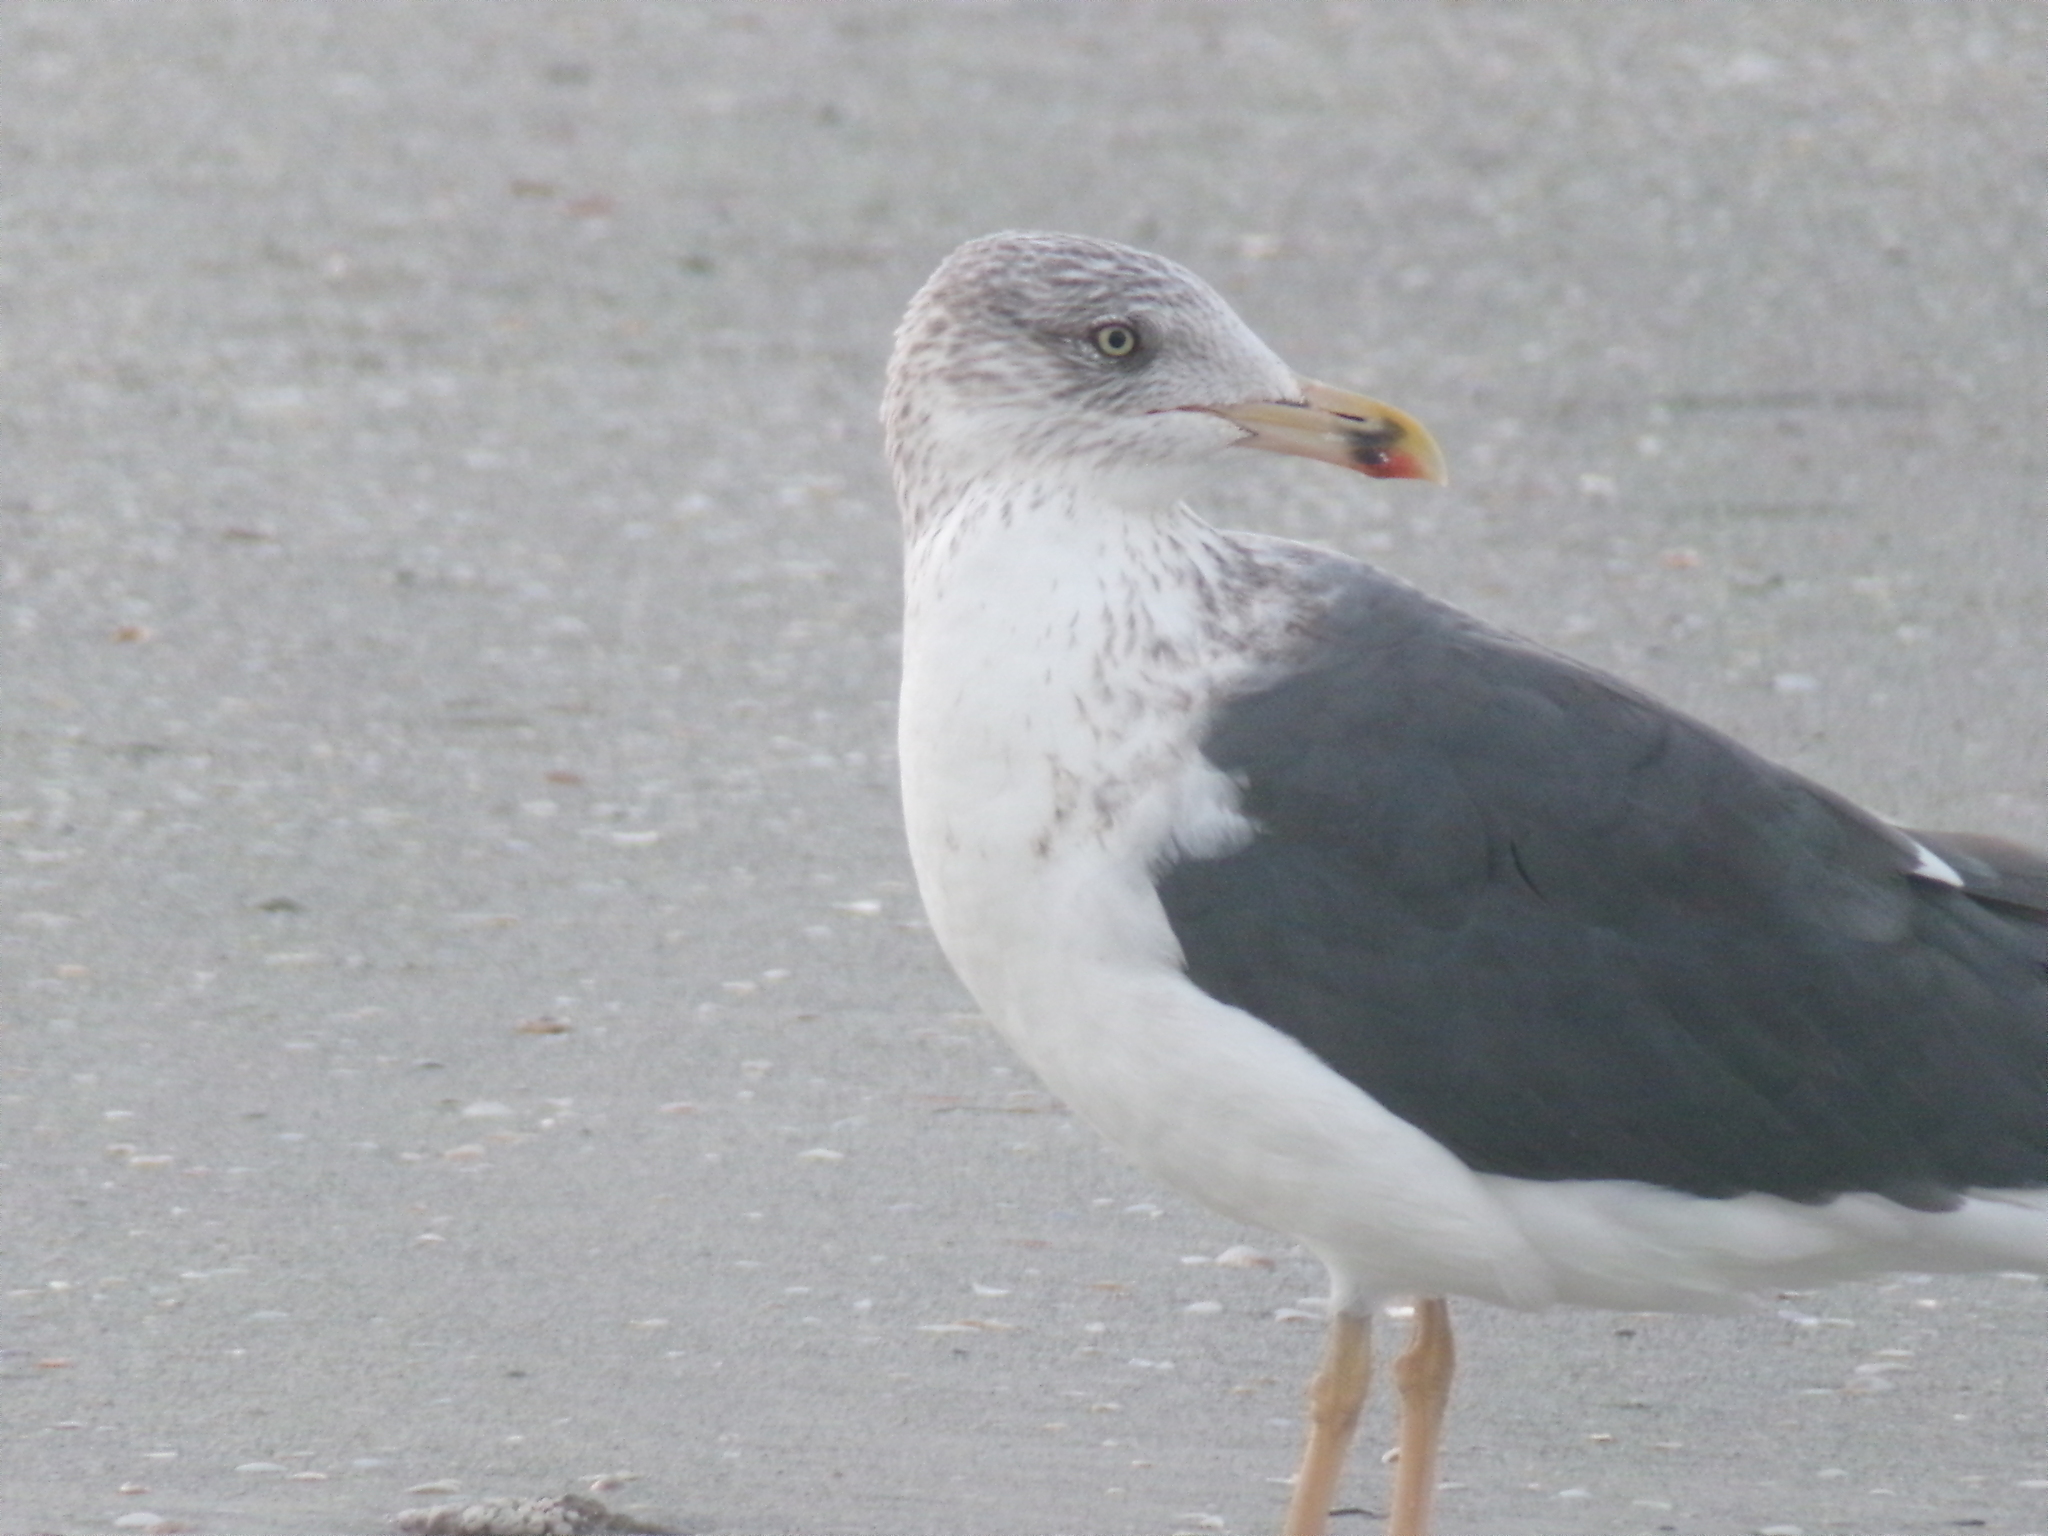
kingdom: Animalia
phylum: Chordata
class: Aves
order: Charadriiformes
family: Laridae
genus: Larus
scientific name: Larus fuscus
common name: Lesser black-backed gull
